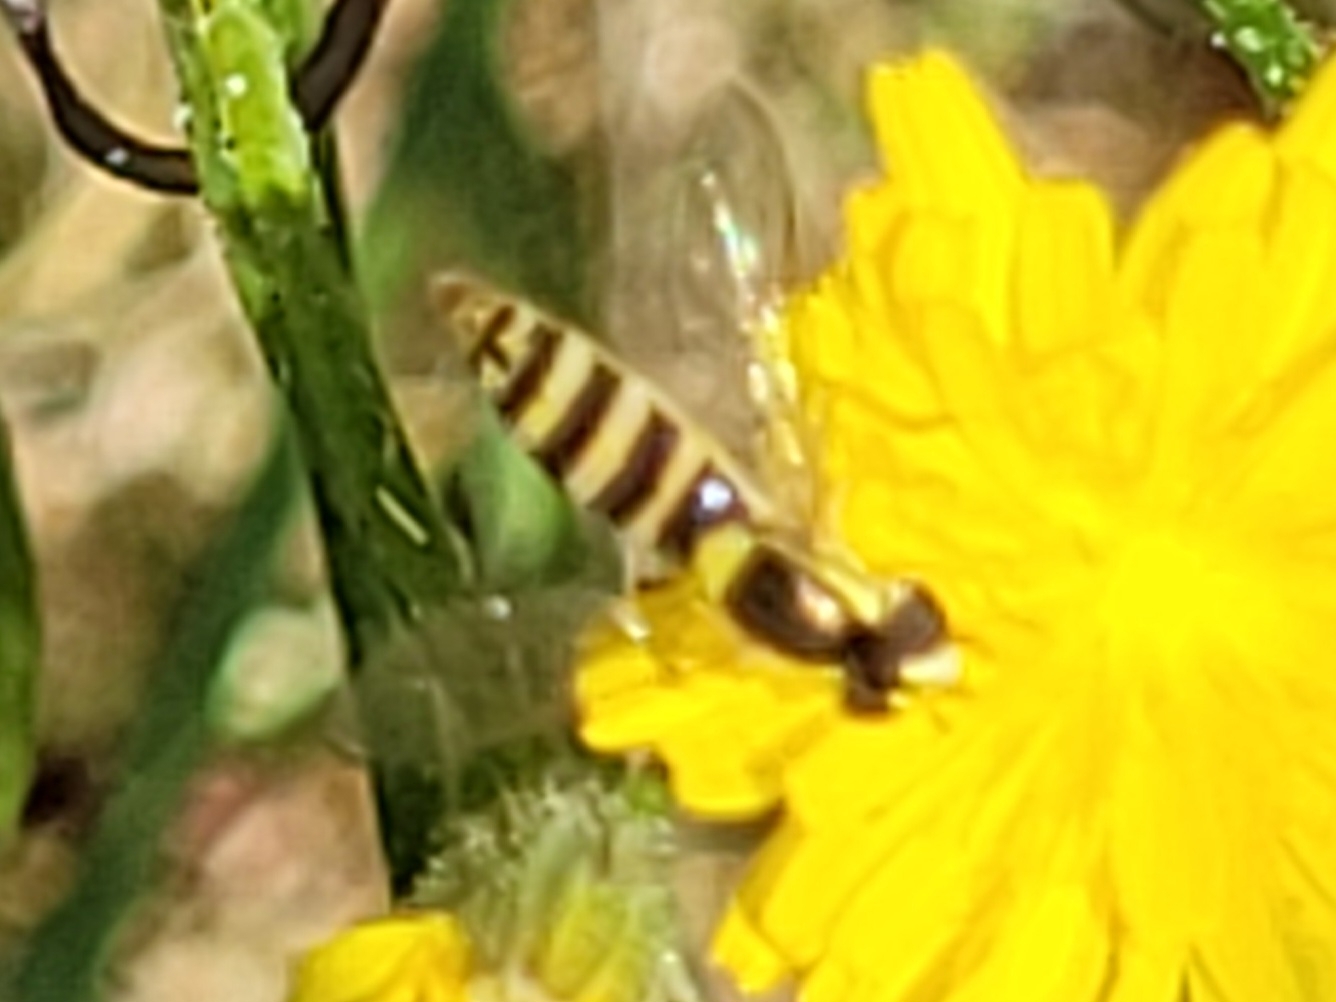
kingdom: Animalia
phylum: Arthropoda
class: Insecta
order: Diptera
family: Syrphidae
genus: Sphaerophoria
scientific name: Sphaerophoria
